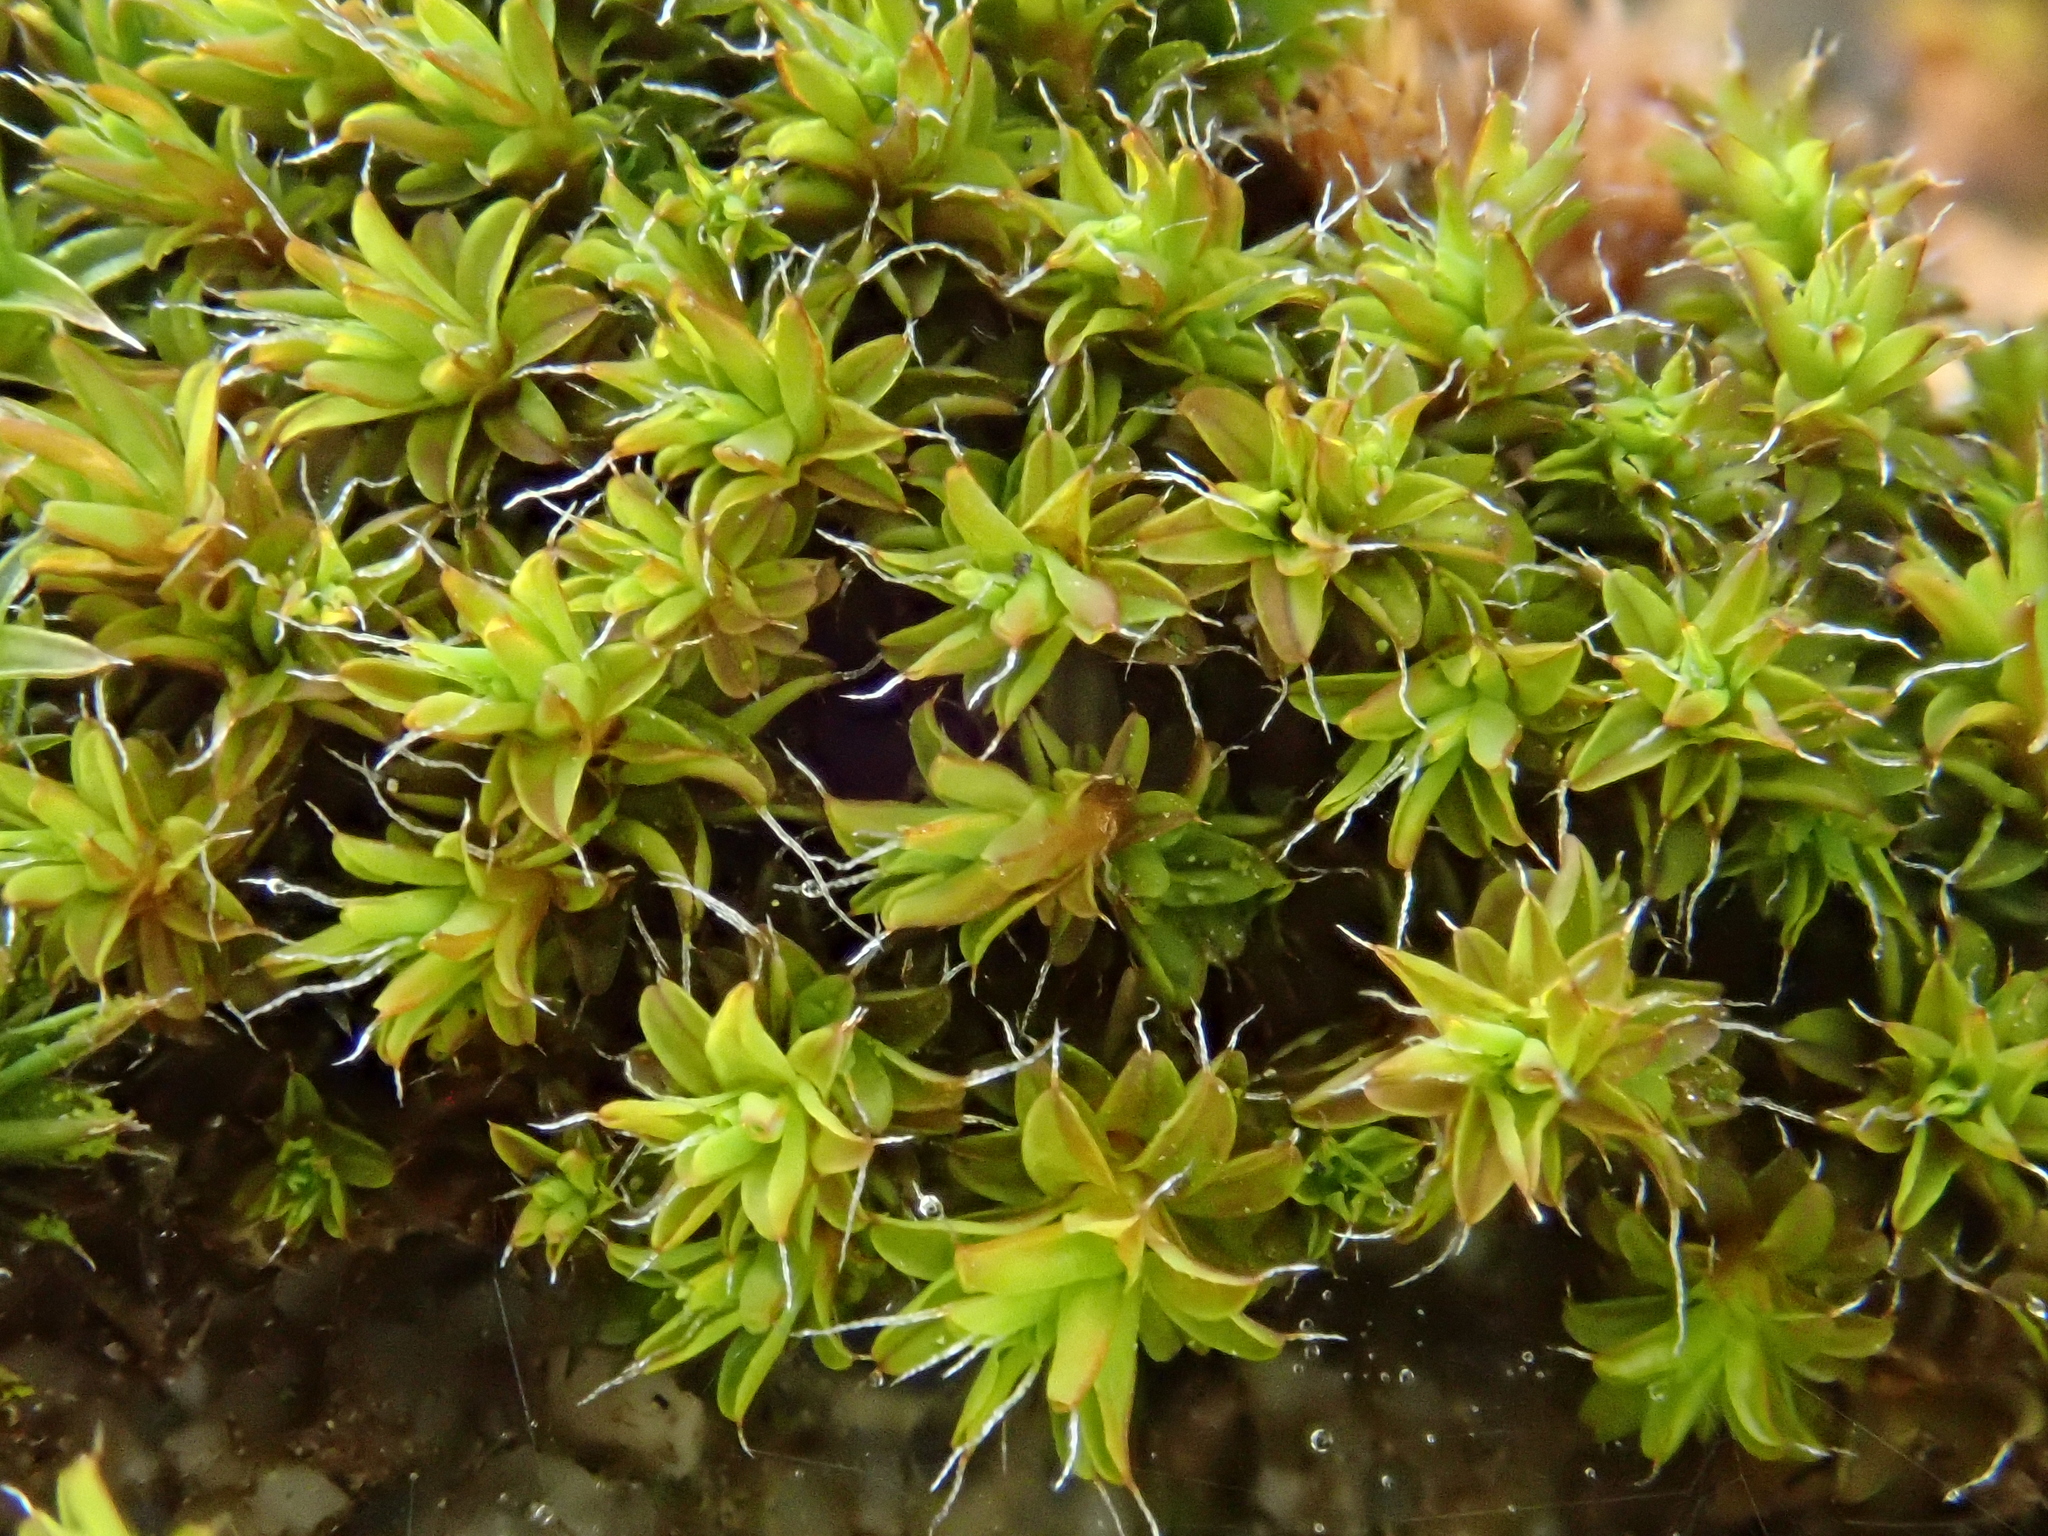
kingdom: Plantae
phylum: Bryophyta
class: Bryopsida
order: Pottiales
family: Pottiaceae
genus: Syntrichia
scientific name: Syntrichia virescens
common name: Lesser screw-moss
